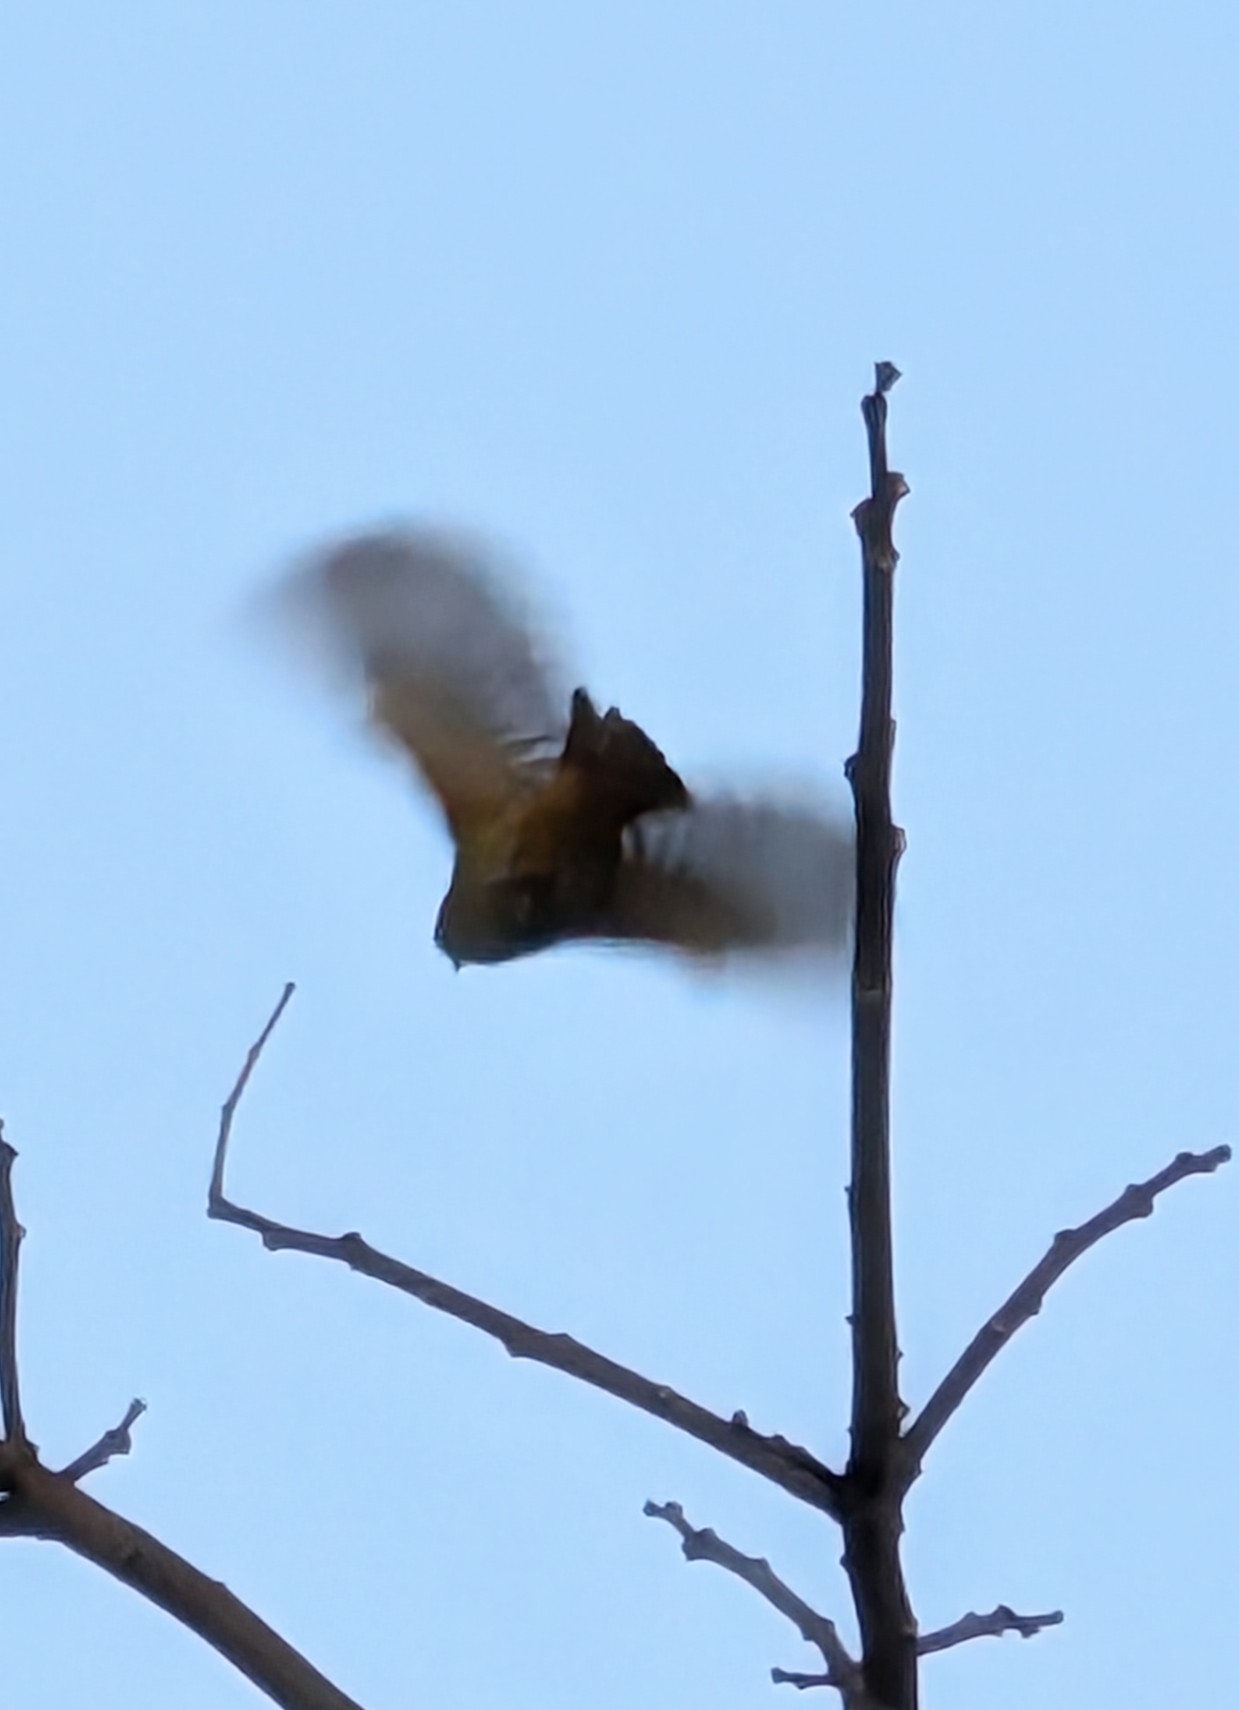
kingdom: Animalia
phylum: Chordata
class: Aves
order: Passeriformes
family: Cardinalidae
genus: Piranga
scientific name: Piranga rubra
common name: Summer tanager
